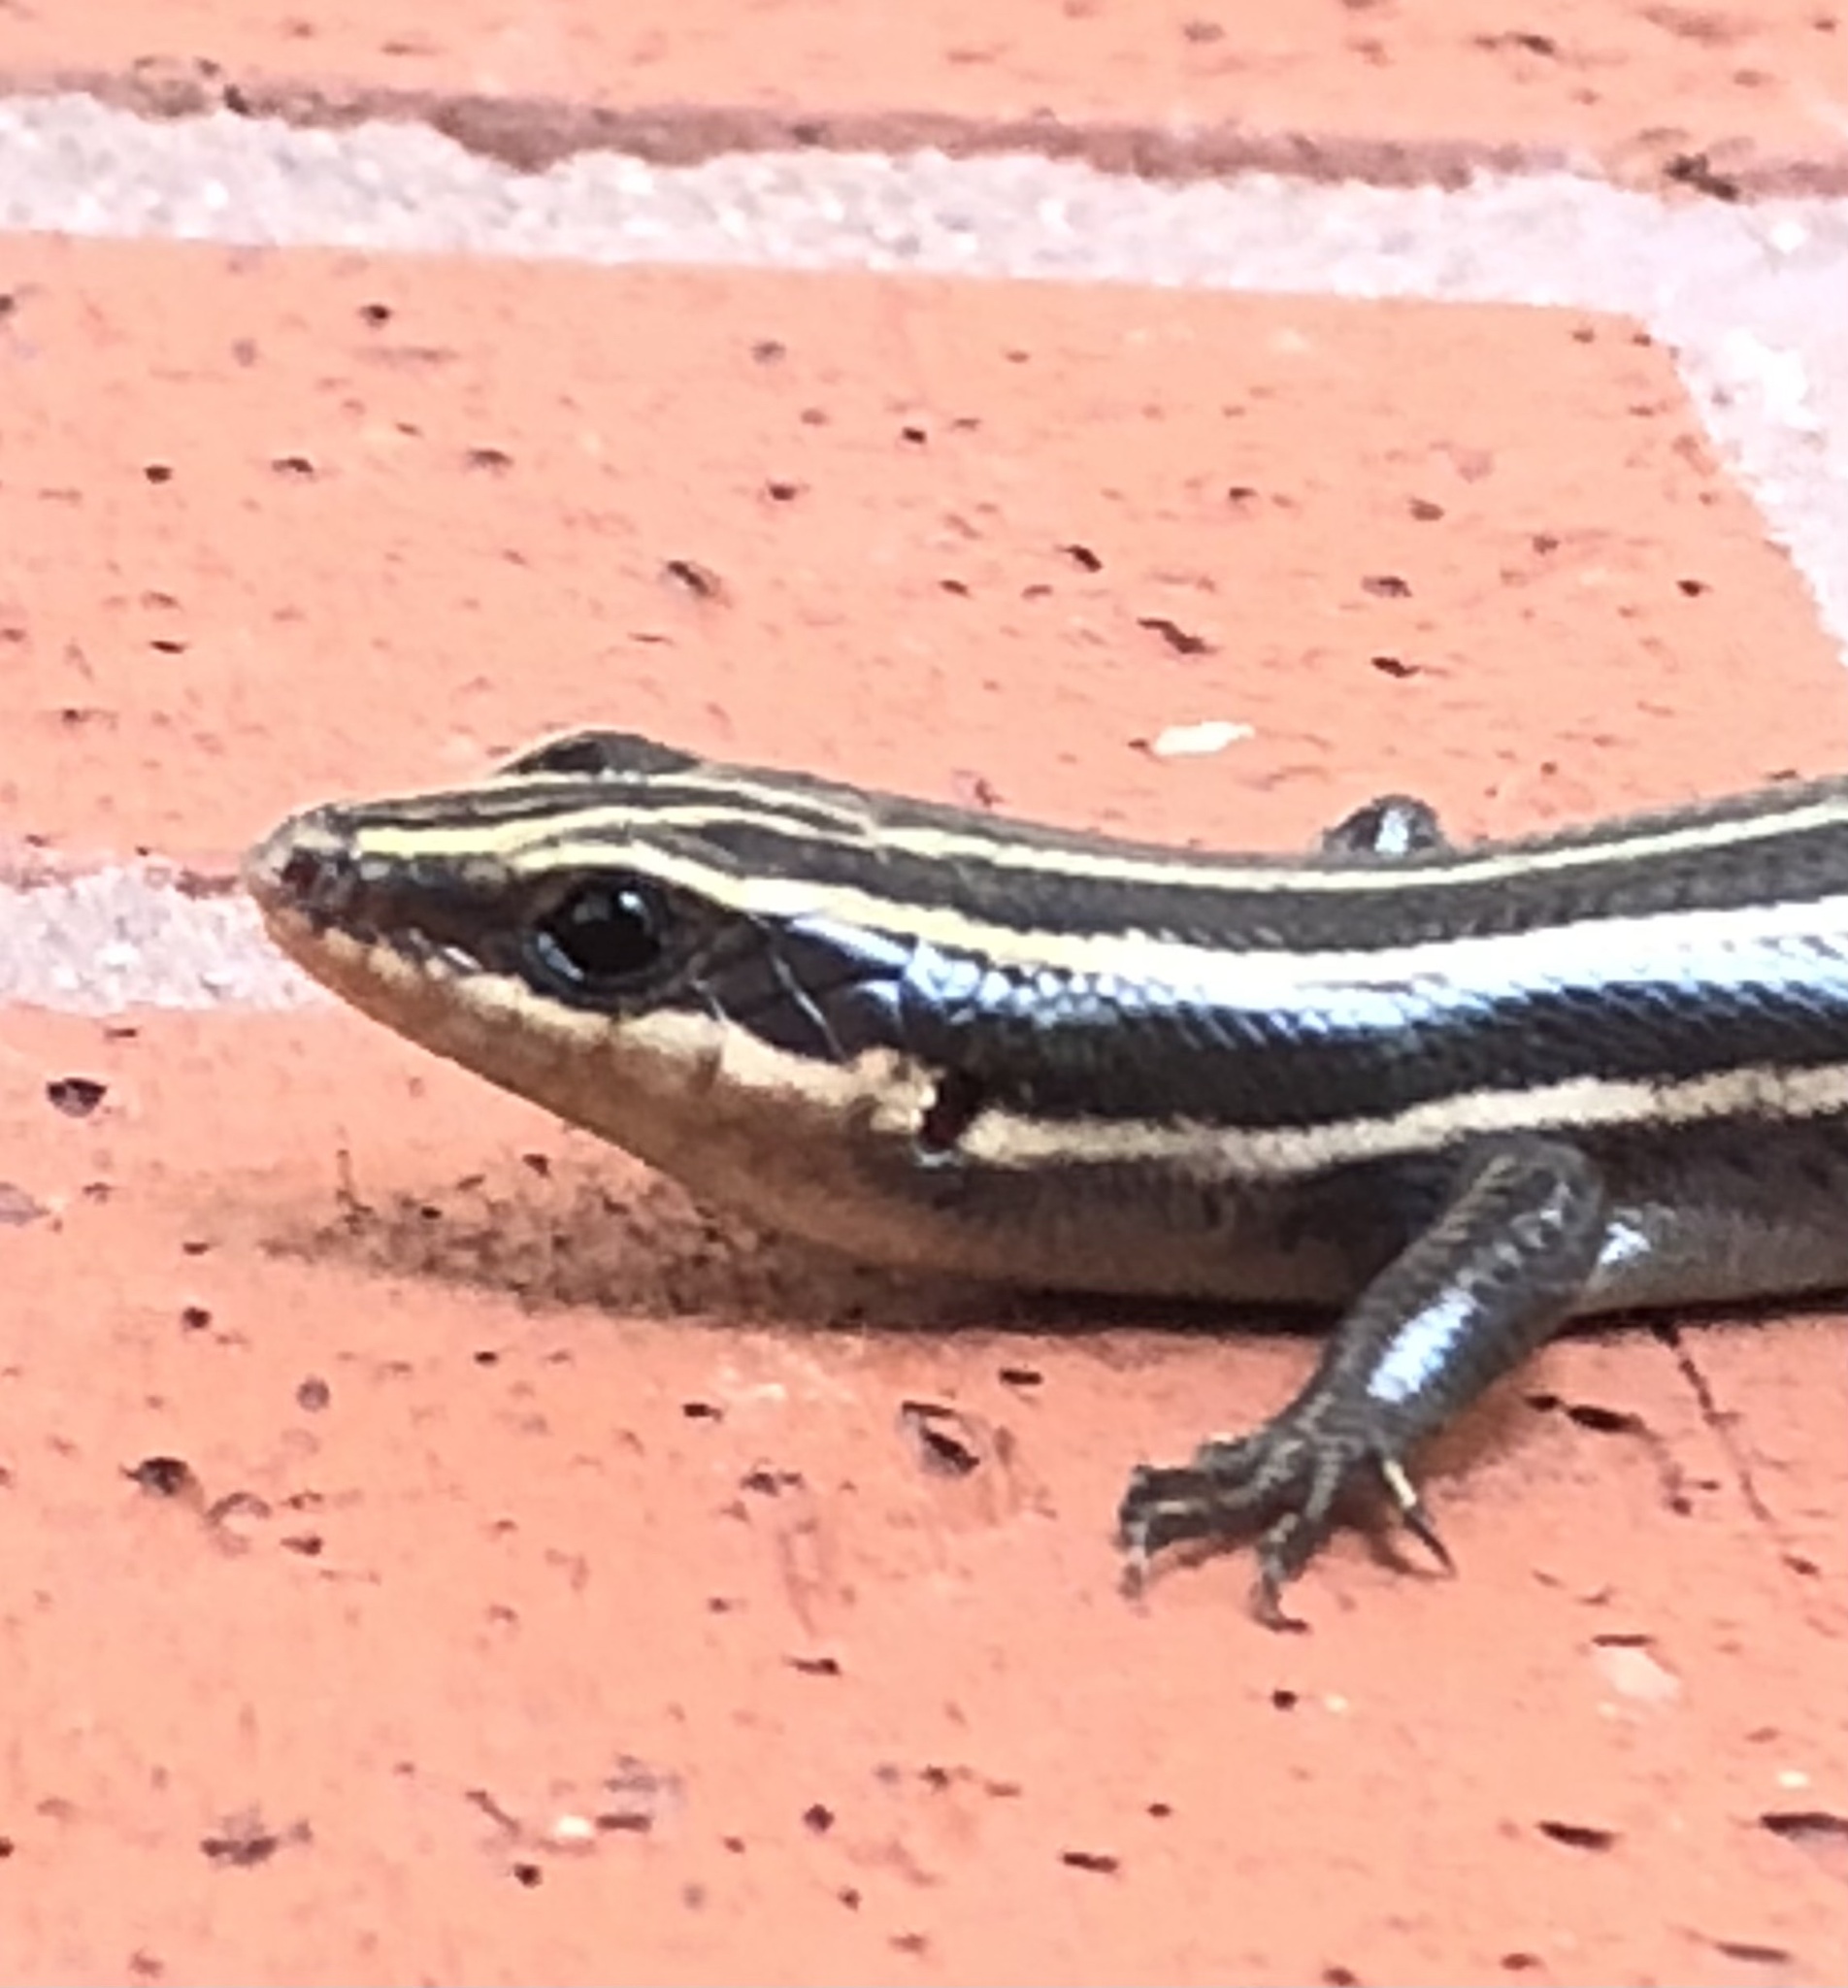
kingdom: Animalia
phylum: Chordata
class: Squamata
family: Scincidae
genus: Plestiodon
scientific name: Plestiodon fasciatus
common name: Five-lined skink
